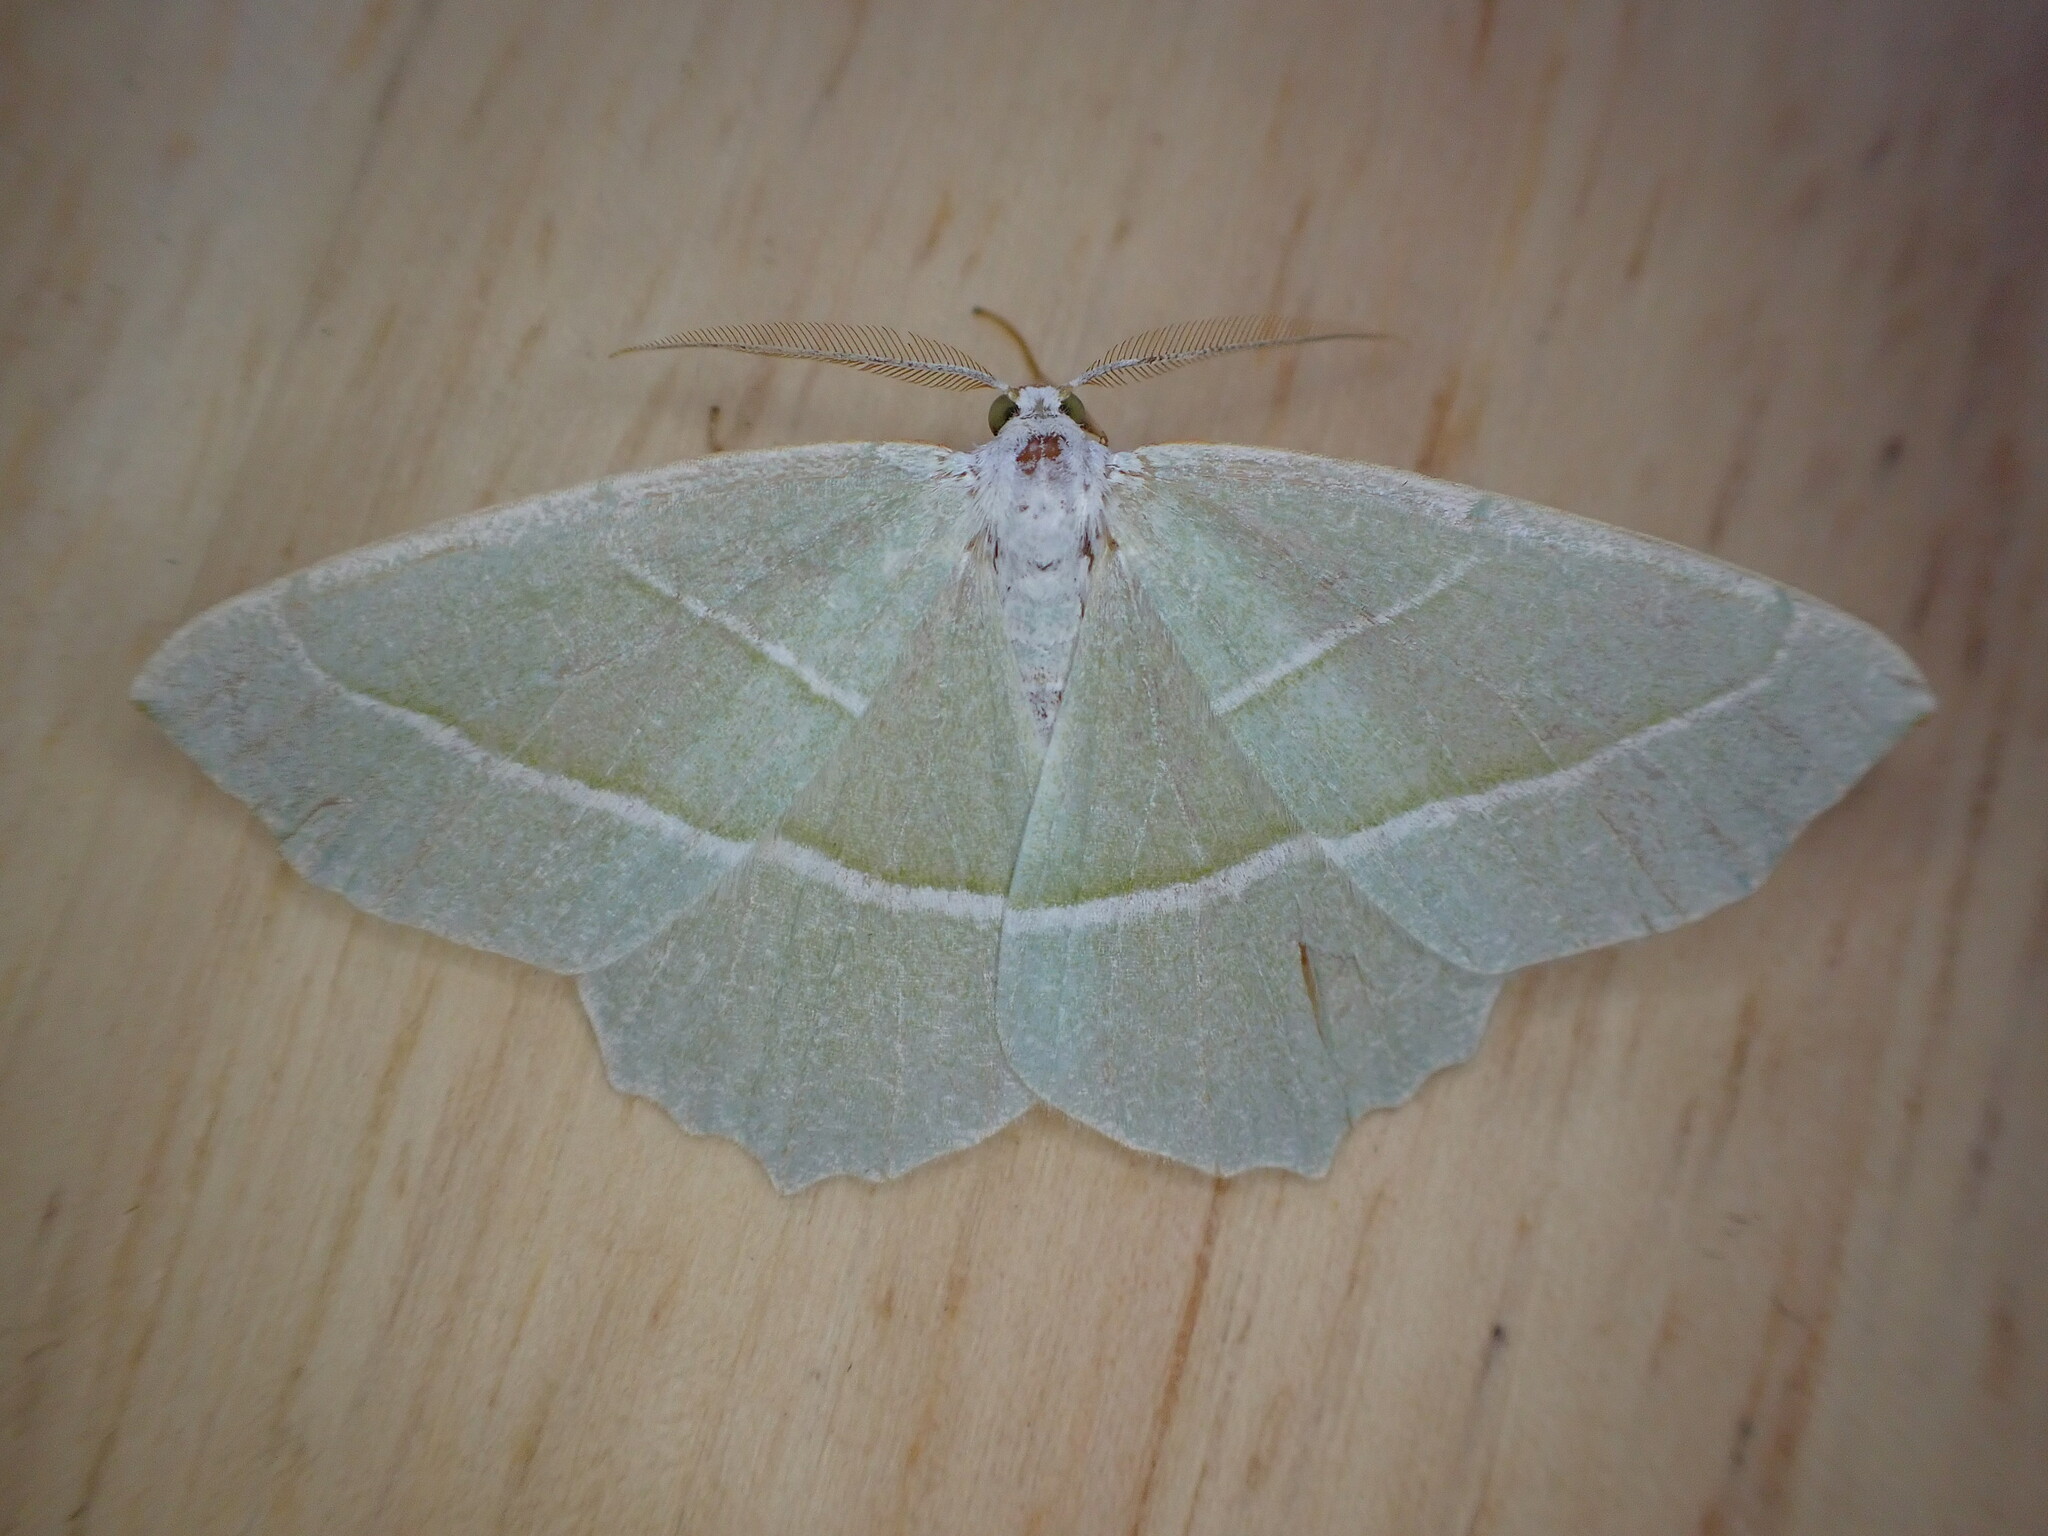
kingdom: Animalia
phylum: Arthropoda
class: Insecta
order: Lepidoptera
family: Geometridae
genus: Campaea
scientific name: Campaea margaritaria
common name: Light emerald
